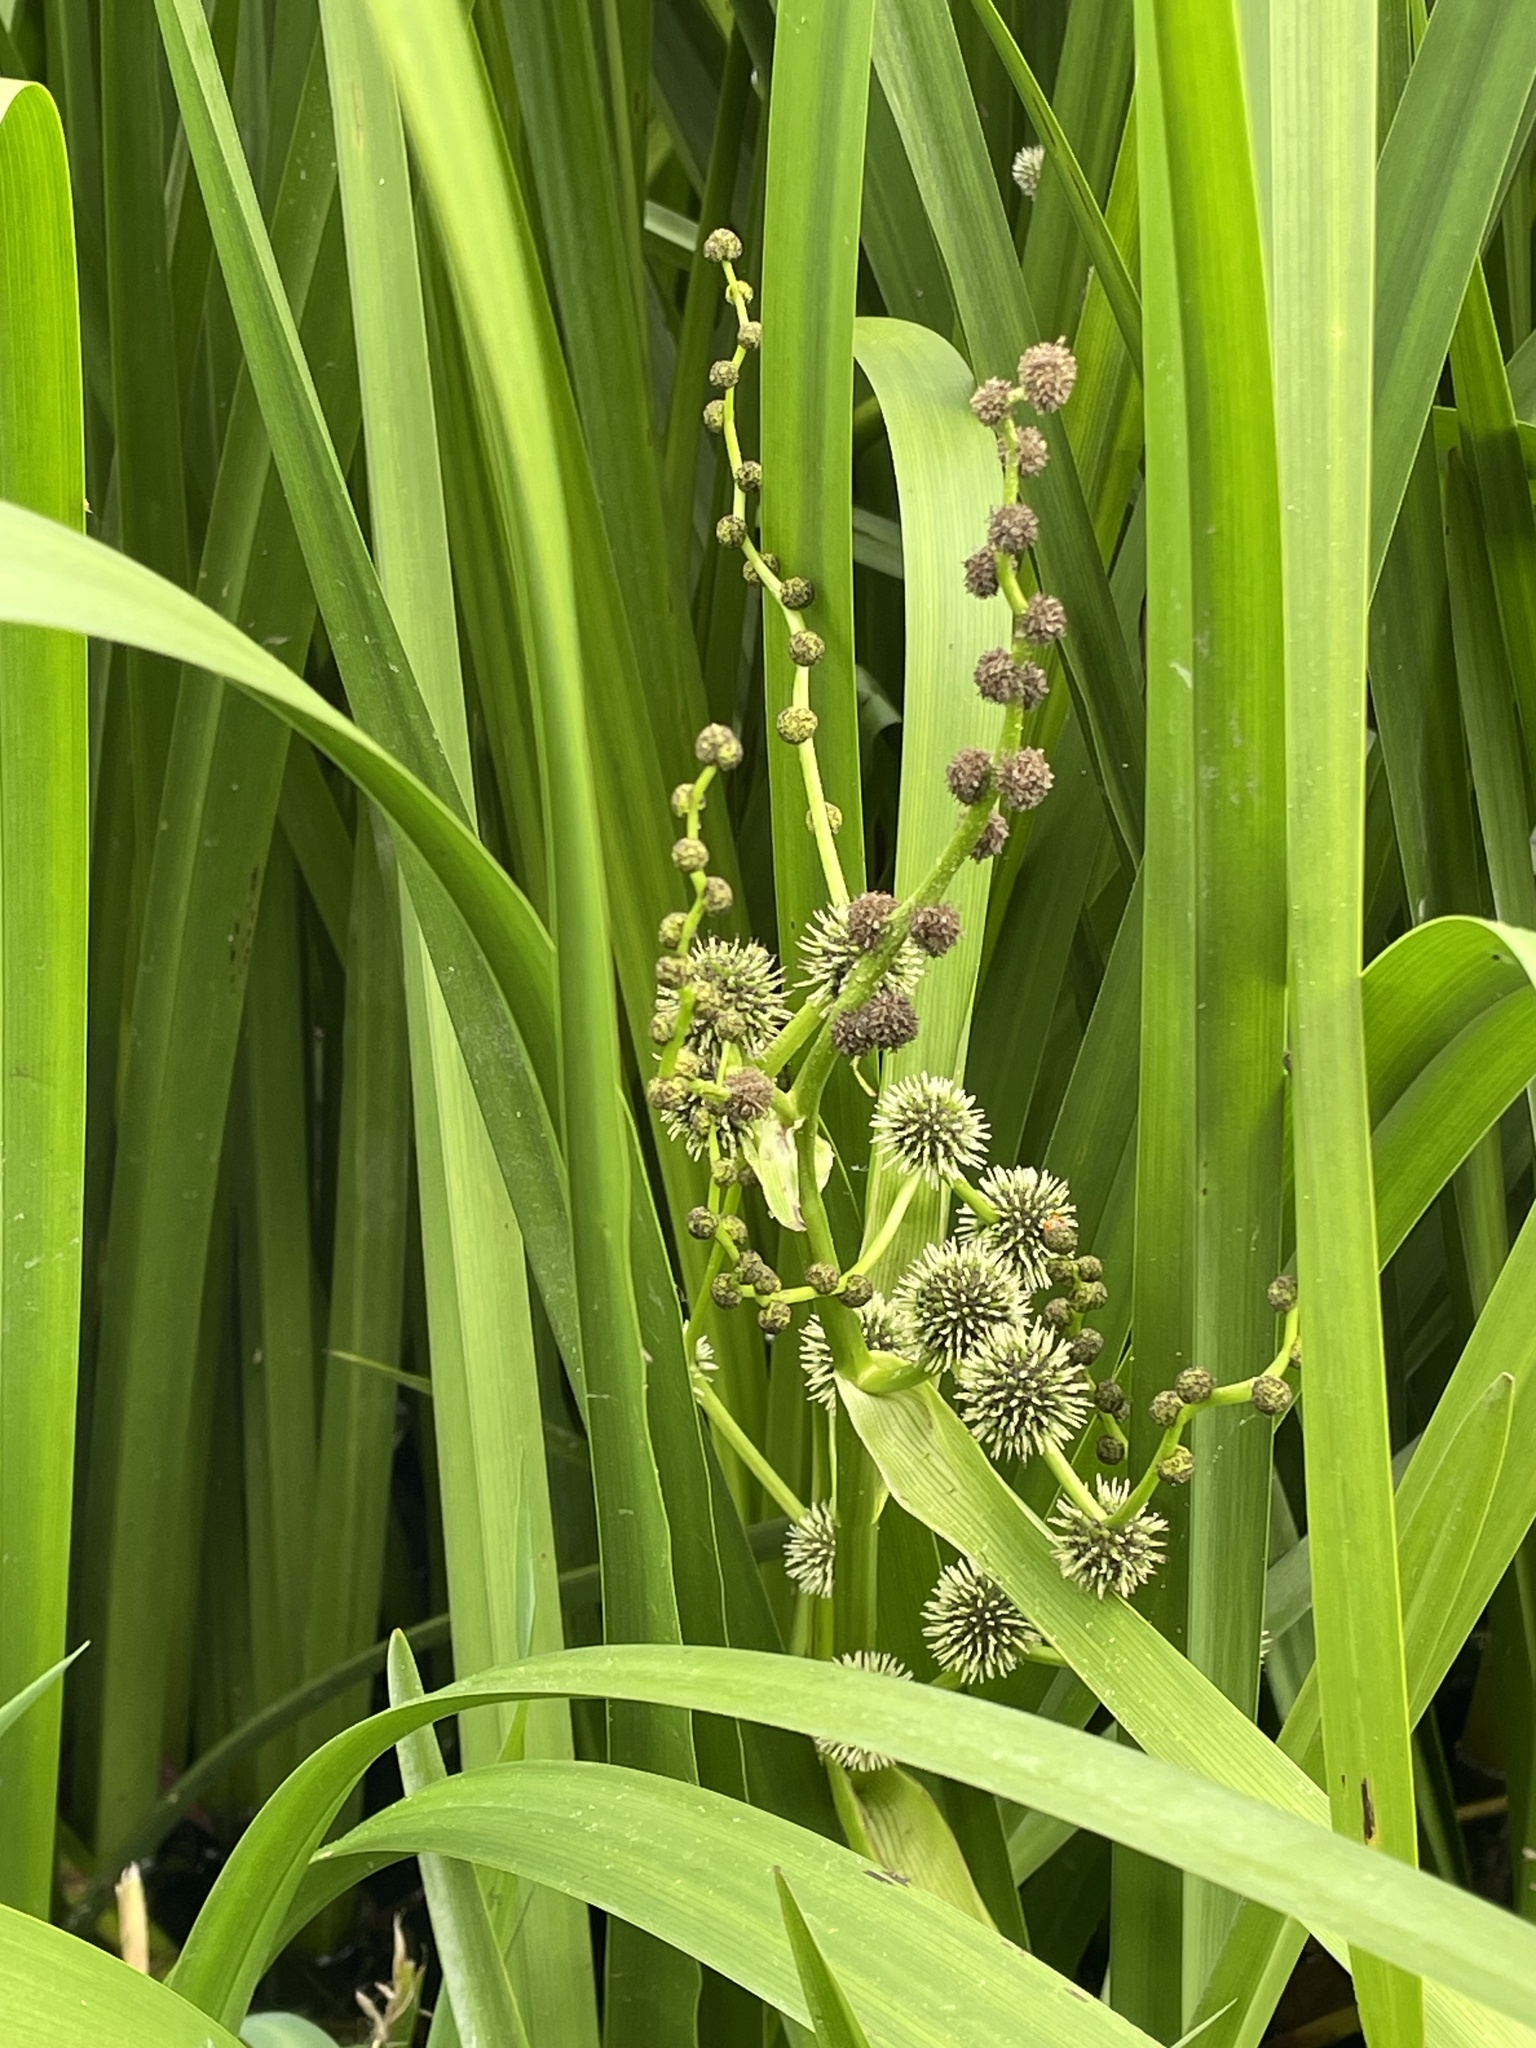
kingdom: Plantae
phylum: Tracheophyta
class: Liliopsida
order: Poales
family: Typhaceae
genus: Sparganium
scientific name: Sparganium erectum
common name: Branched bur-reed
